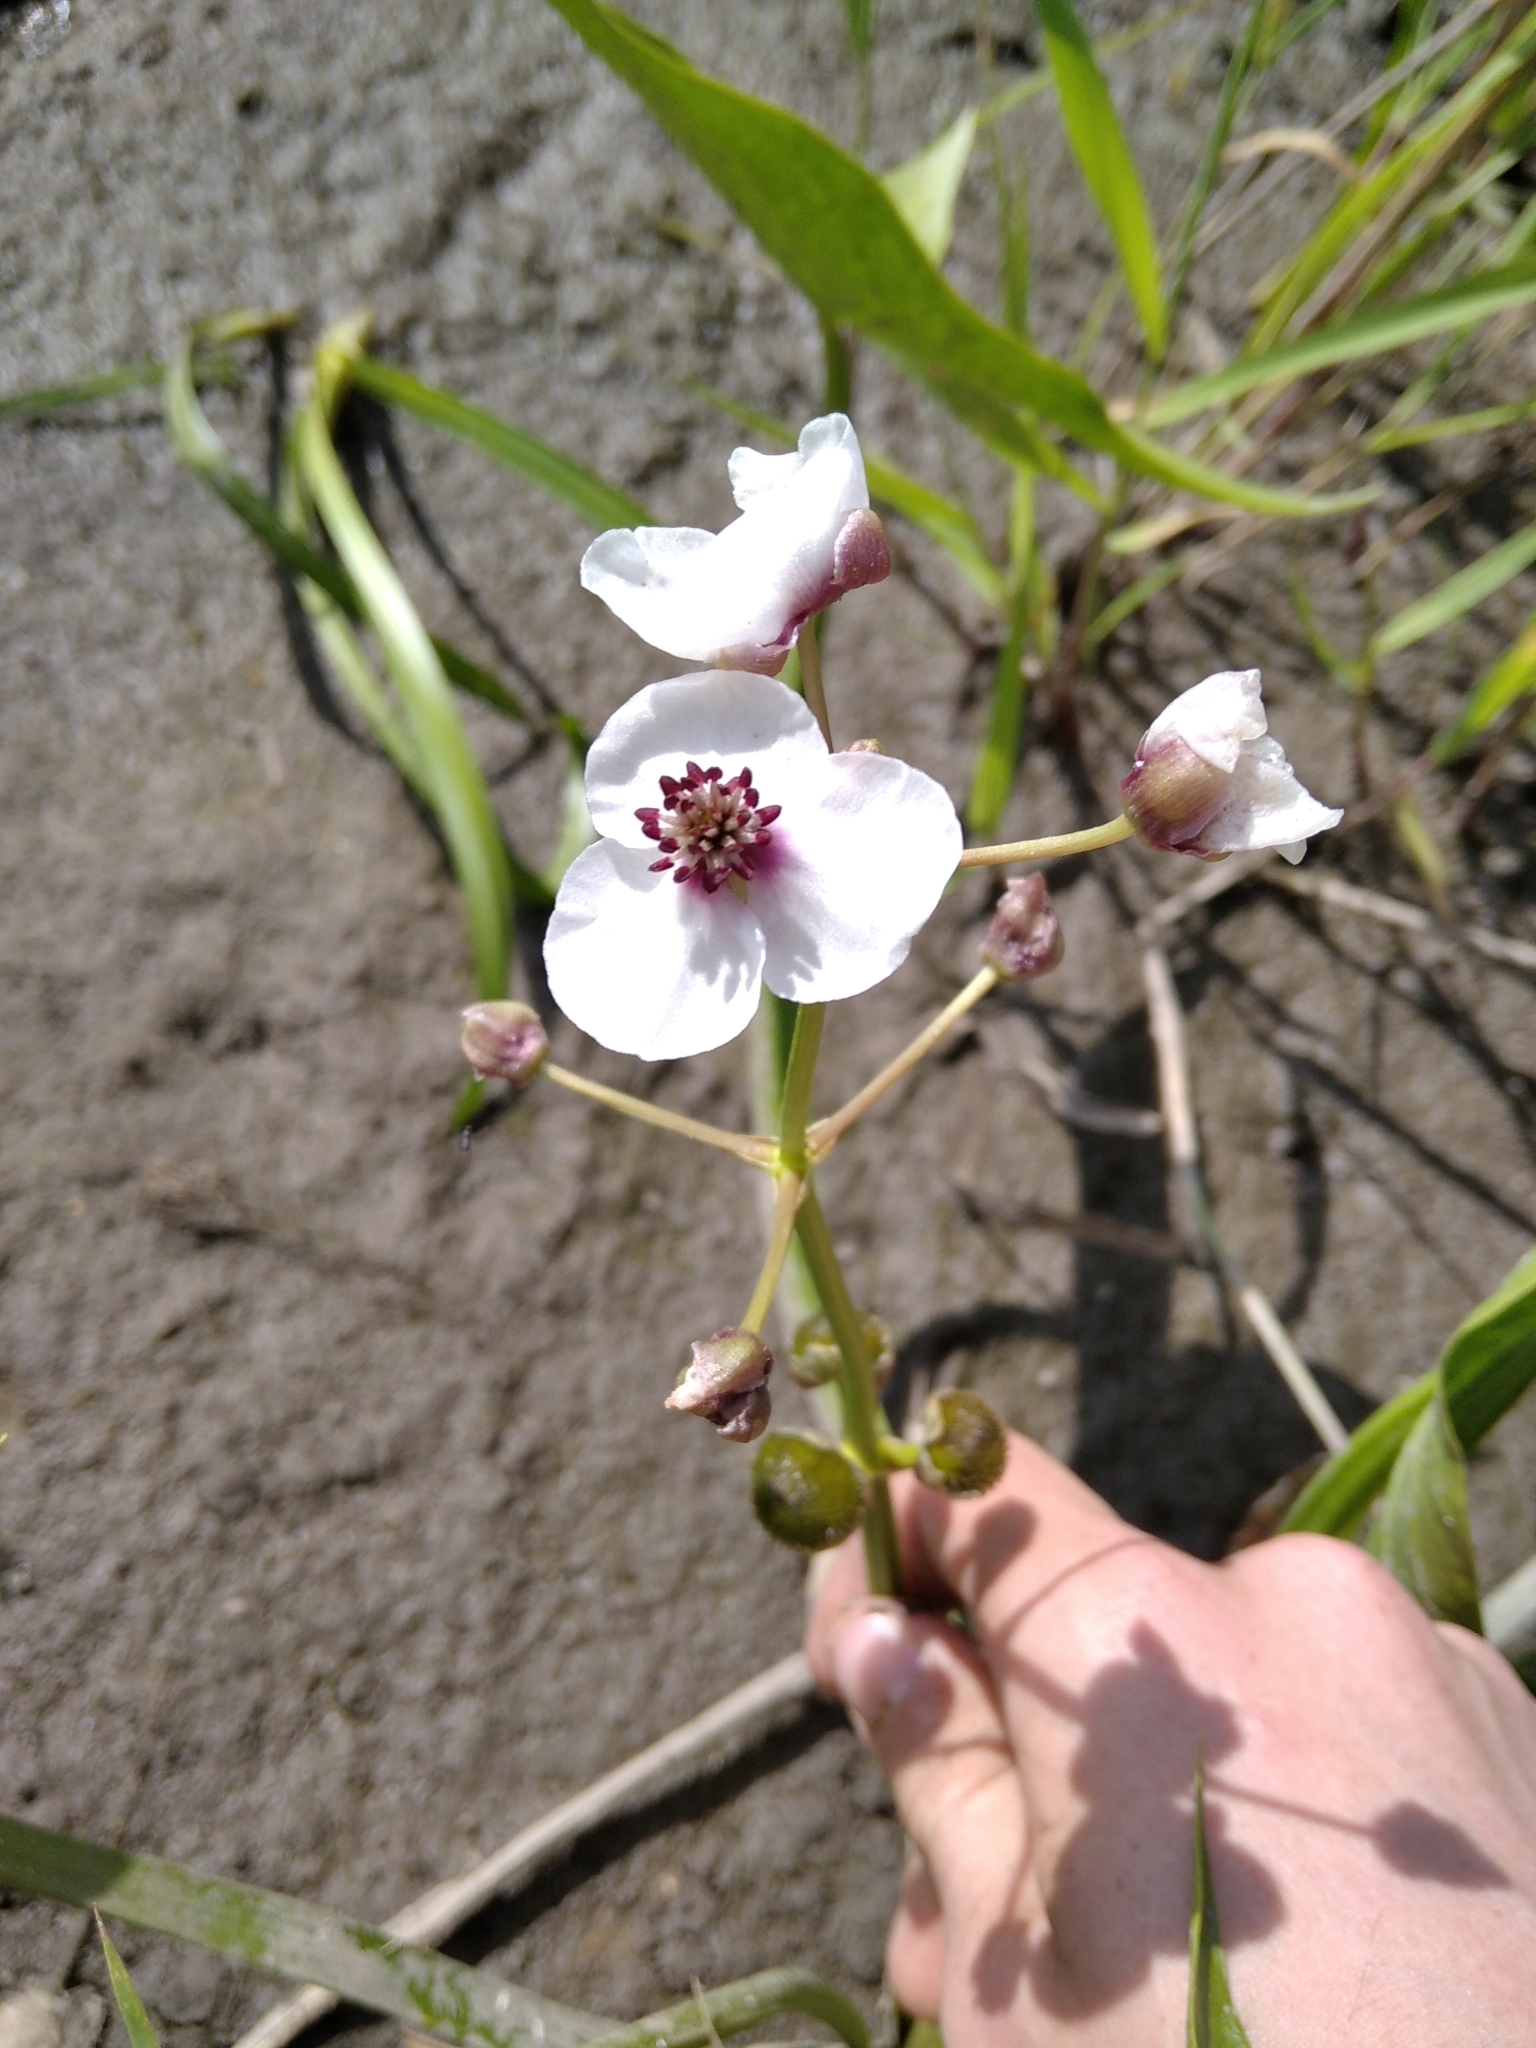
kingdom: Plantae
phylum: Tracheophyta
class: Liliopsida
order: Alismatales
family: Alismataceae
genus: Sagittaria
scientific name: Sagittaria sagittifolia
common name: Arrowhead
